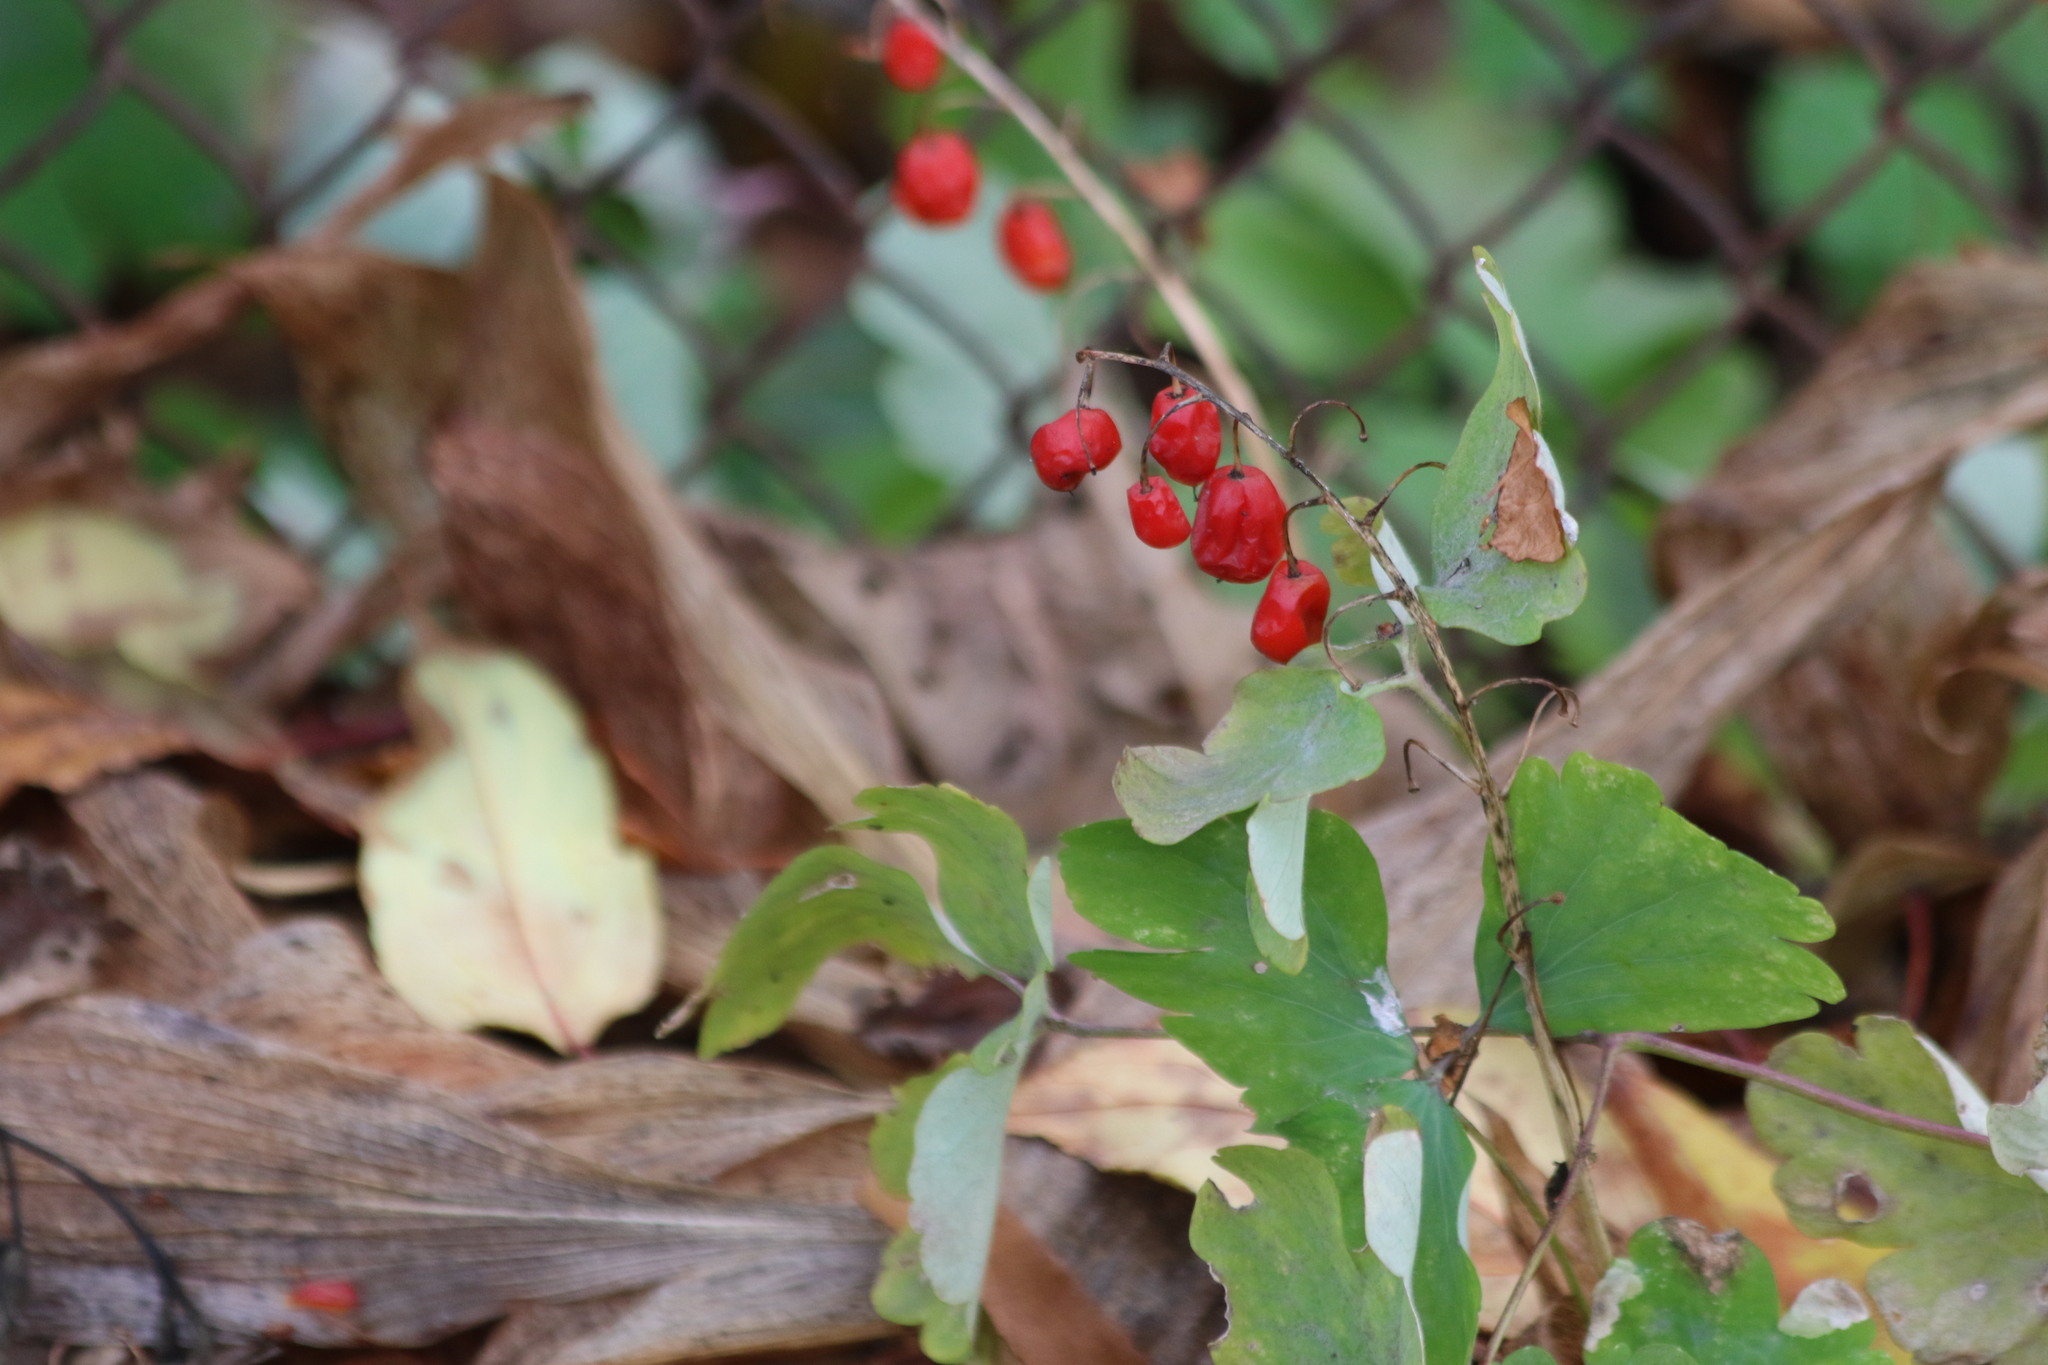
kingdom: Plantae
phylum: Tracheophyta
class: Liliopsida
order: Asparagales
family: Asparagaceae
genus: Convallaria
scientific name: Convallaria majalis
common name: Lily-of-the-valley
